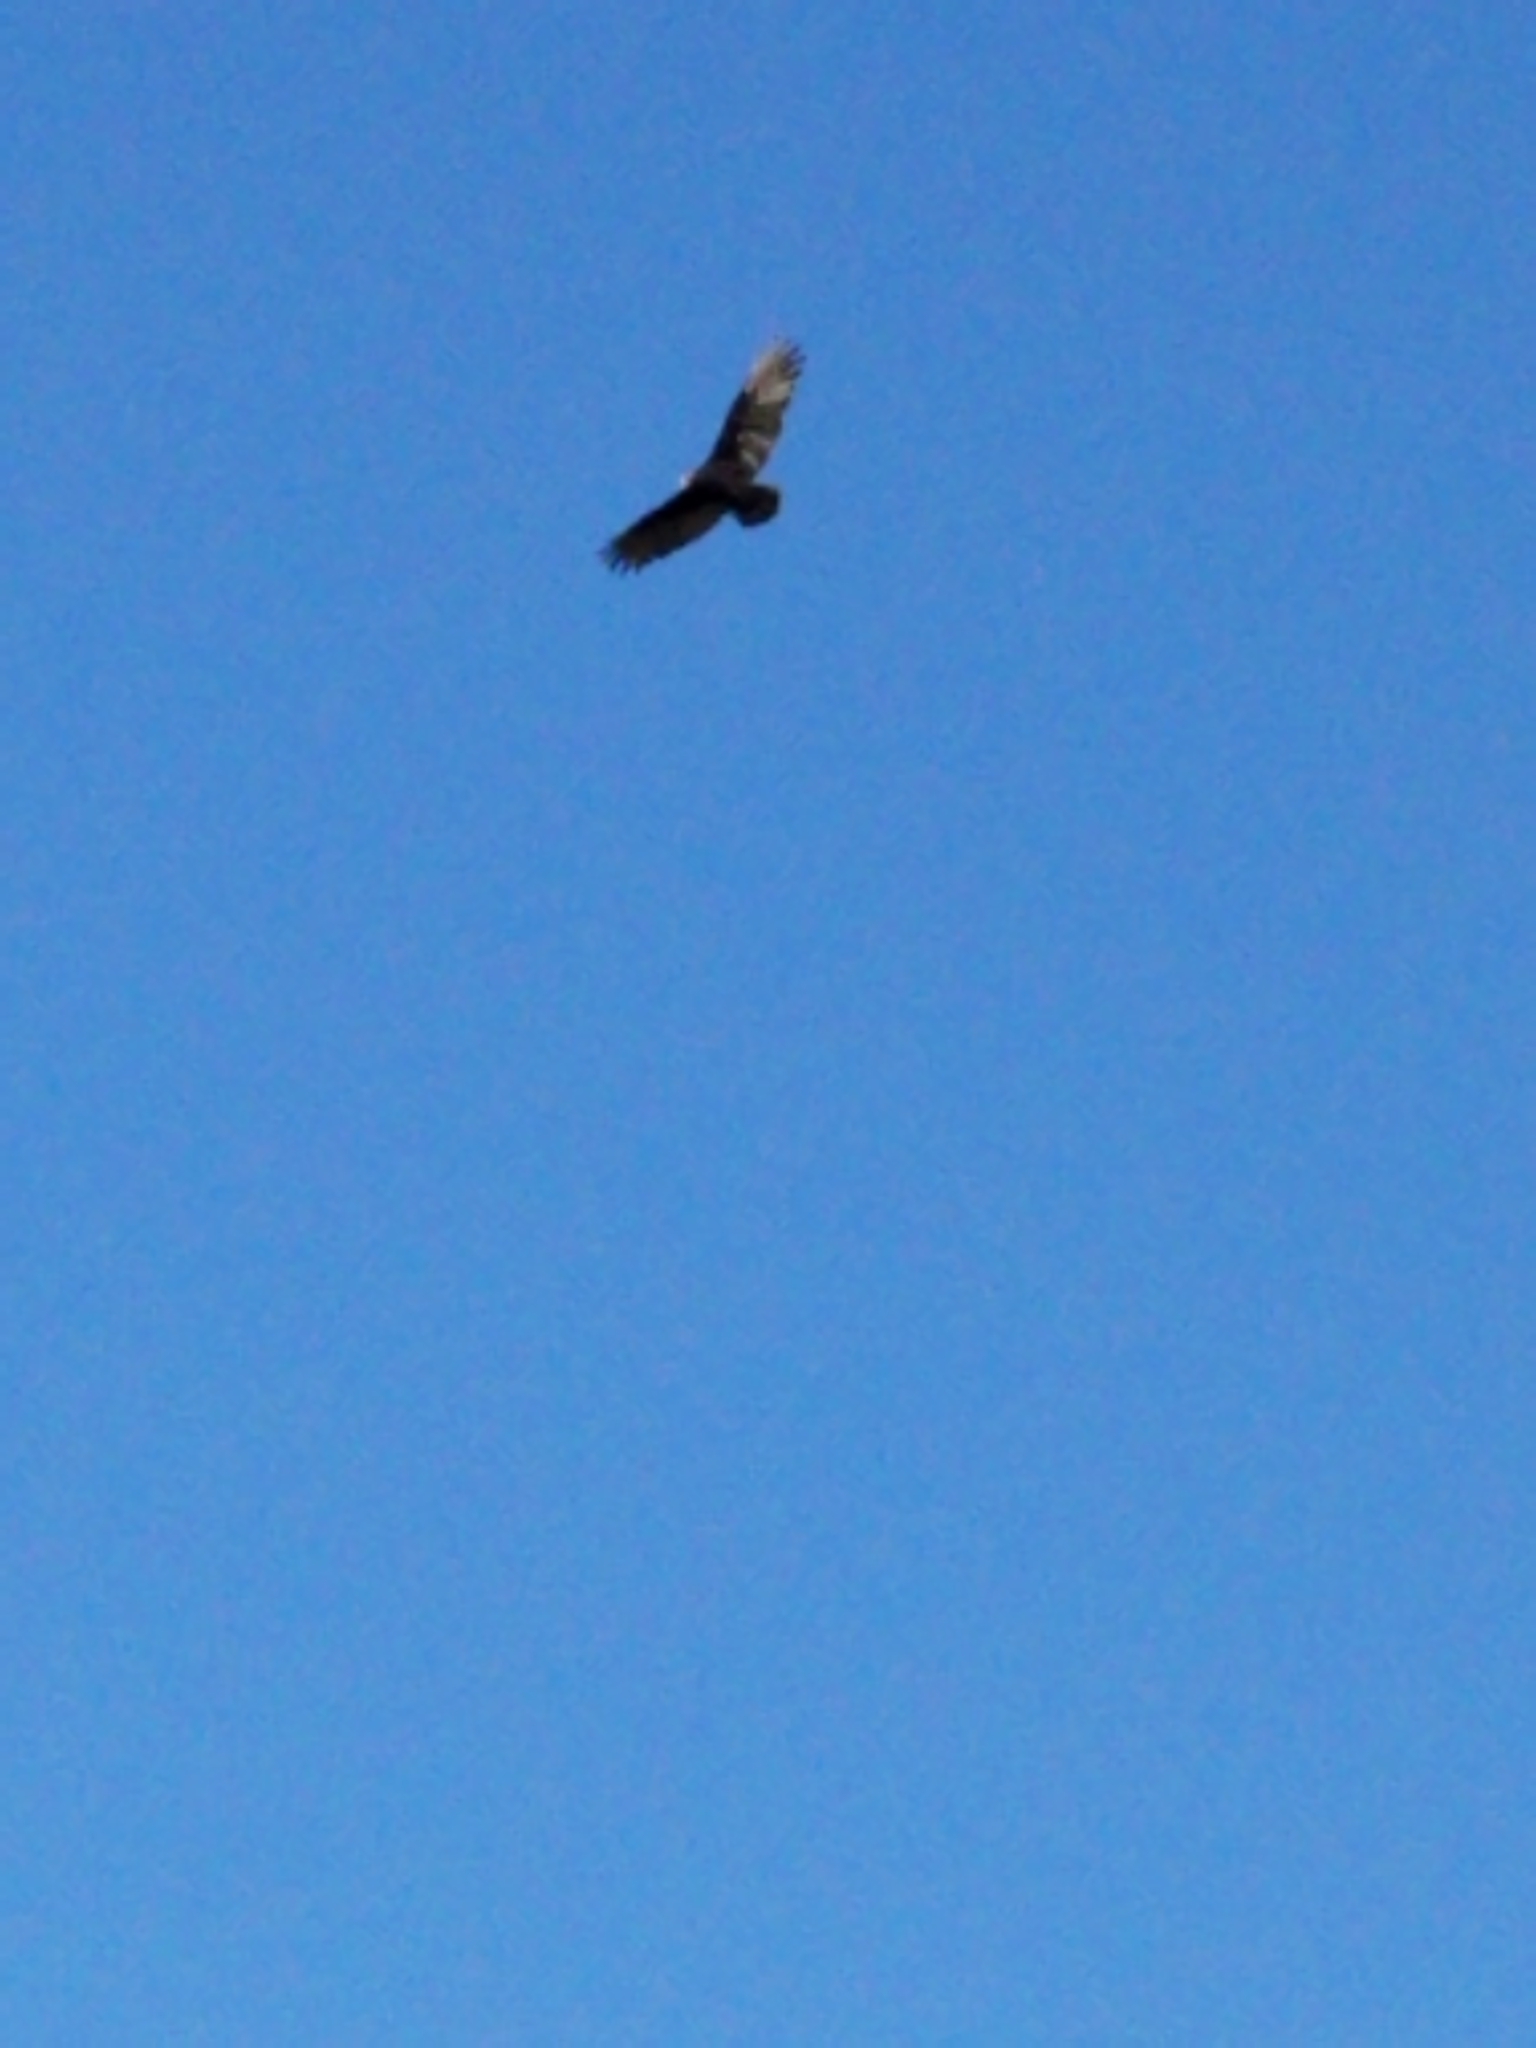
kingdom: Animalia
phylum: Chordata
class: Aves
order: Accipitriformes
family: Cathartidae
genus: Cathartes
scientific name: Cathartes aura
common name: Turkey vulture
